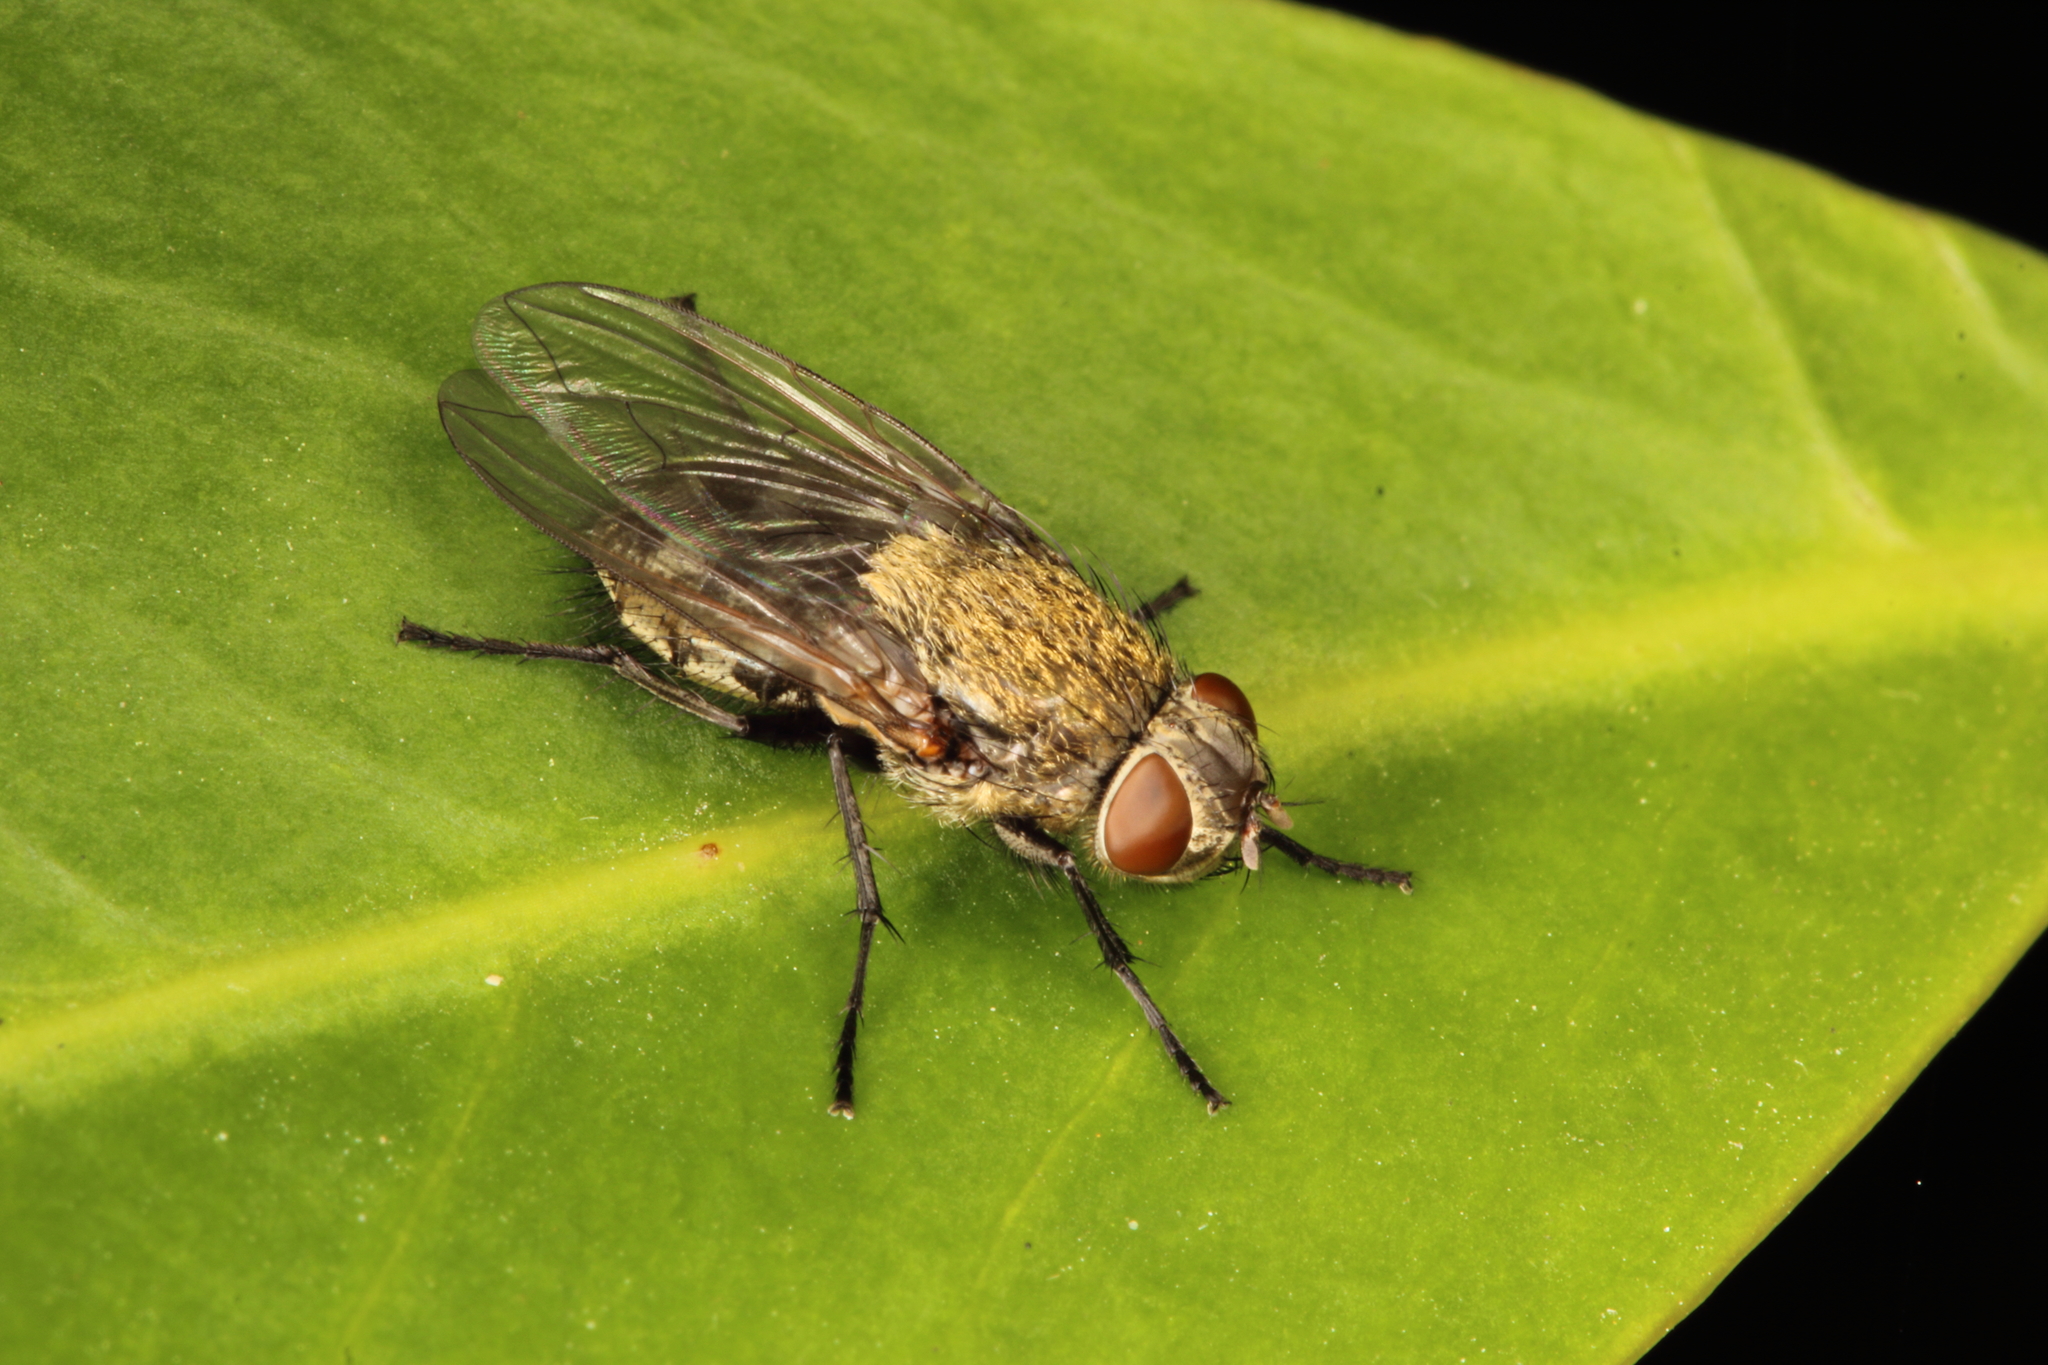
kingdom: Animalia
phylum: Arthropoda
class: Insecta
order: Diptera
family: Polleniidae
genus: Pollenia
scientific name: Pollenia pediculata
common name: Tufted clusterfly
